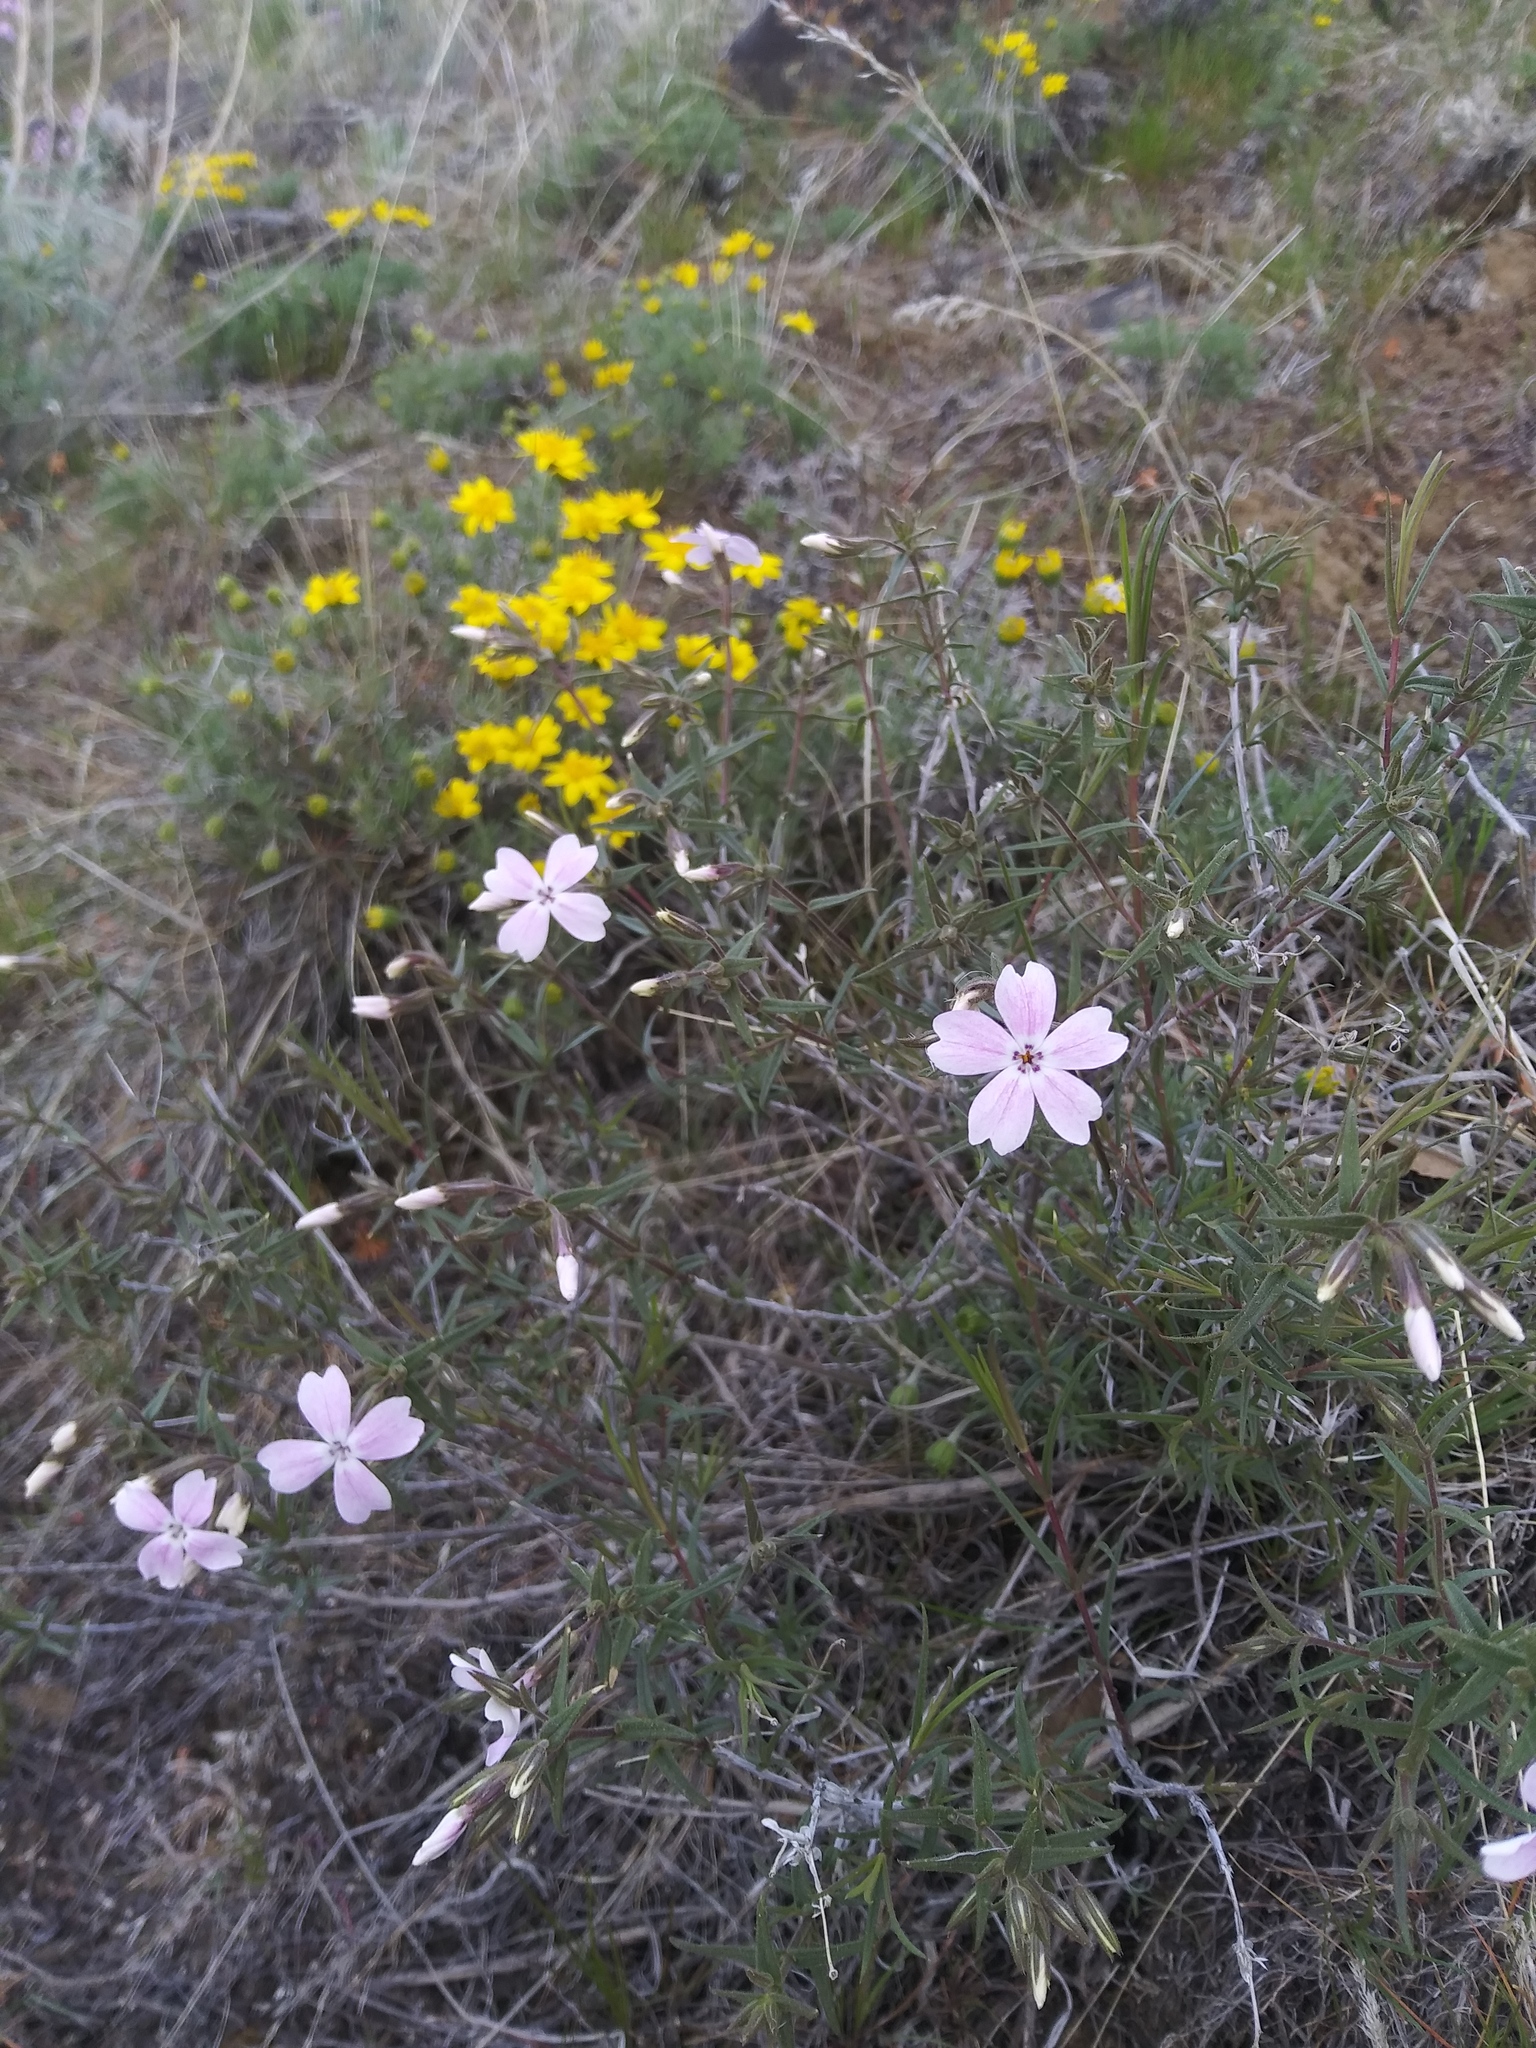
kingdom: Plantae
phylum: Tracheophyta
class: Magnoliopsida
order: Ericales
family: Polemoniaceae
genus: Phlox
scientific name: Phlox speciosa
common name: Bush phlox
